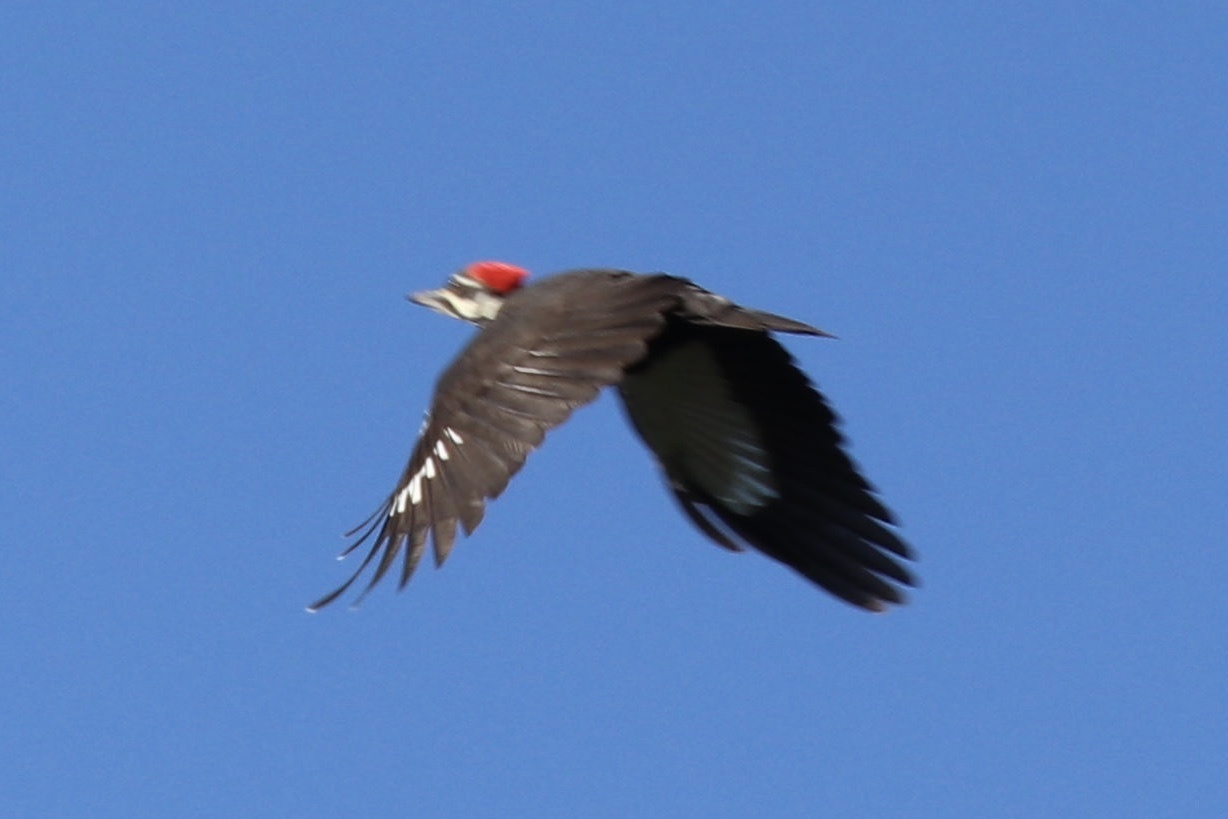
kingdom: Animalia
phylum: Chordata
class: Aves
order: Piciformes
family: Picidae
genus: Dryocopus
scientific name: Dryocopus pileatus
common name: Pileated woodpecker
